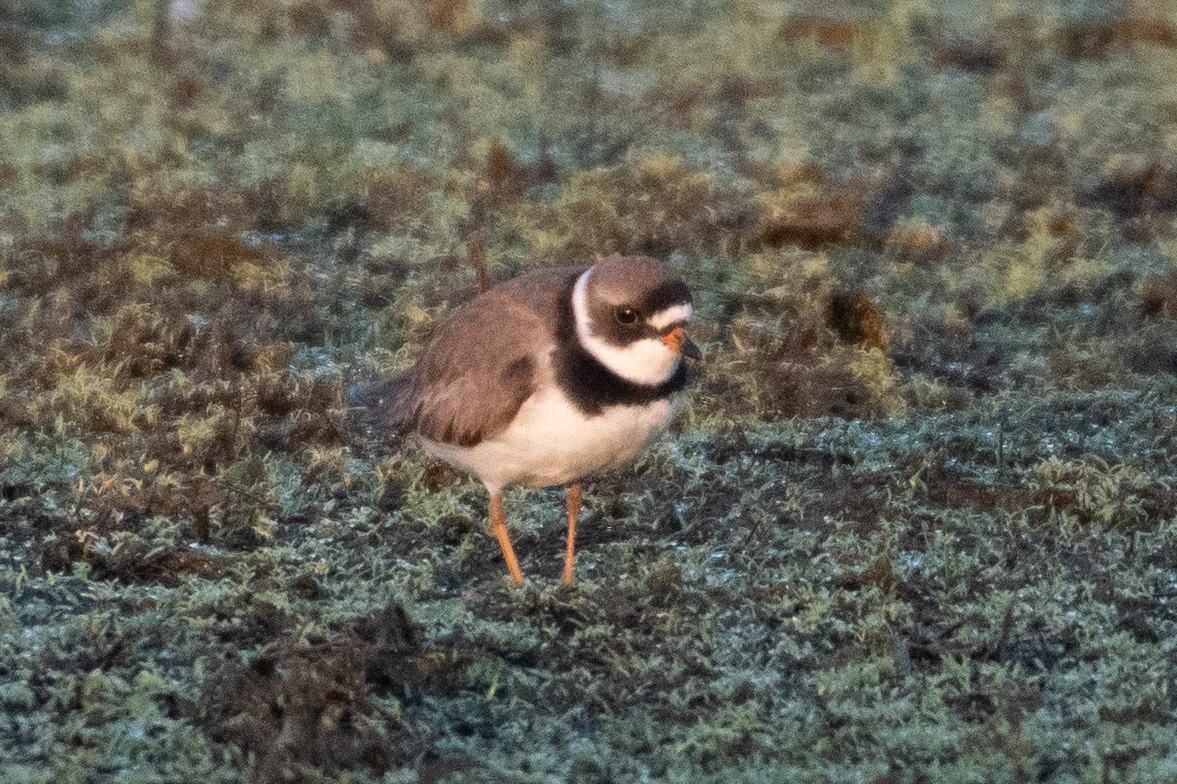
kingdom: Animalia
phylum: Chordata
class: Aves
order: Charadriiformes
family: Charadriidae
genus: Charadrius
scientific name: Charadrius semipalmatus
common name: Semipalmated plover
